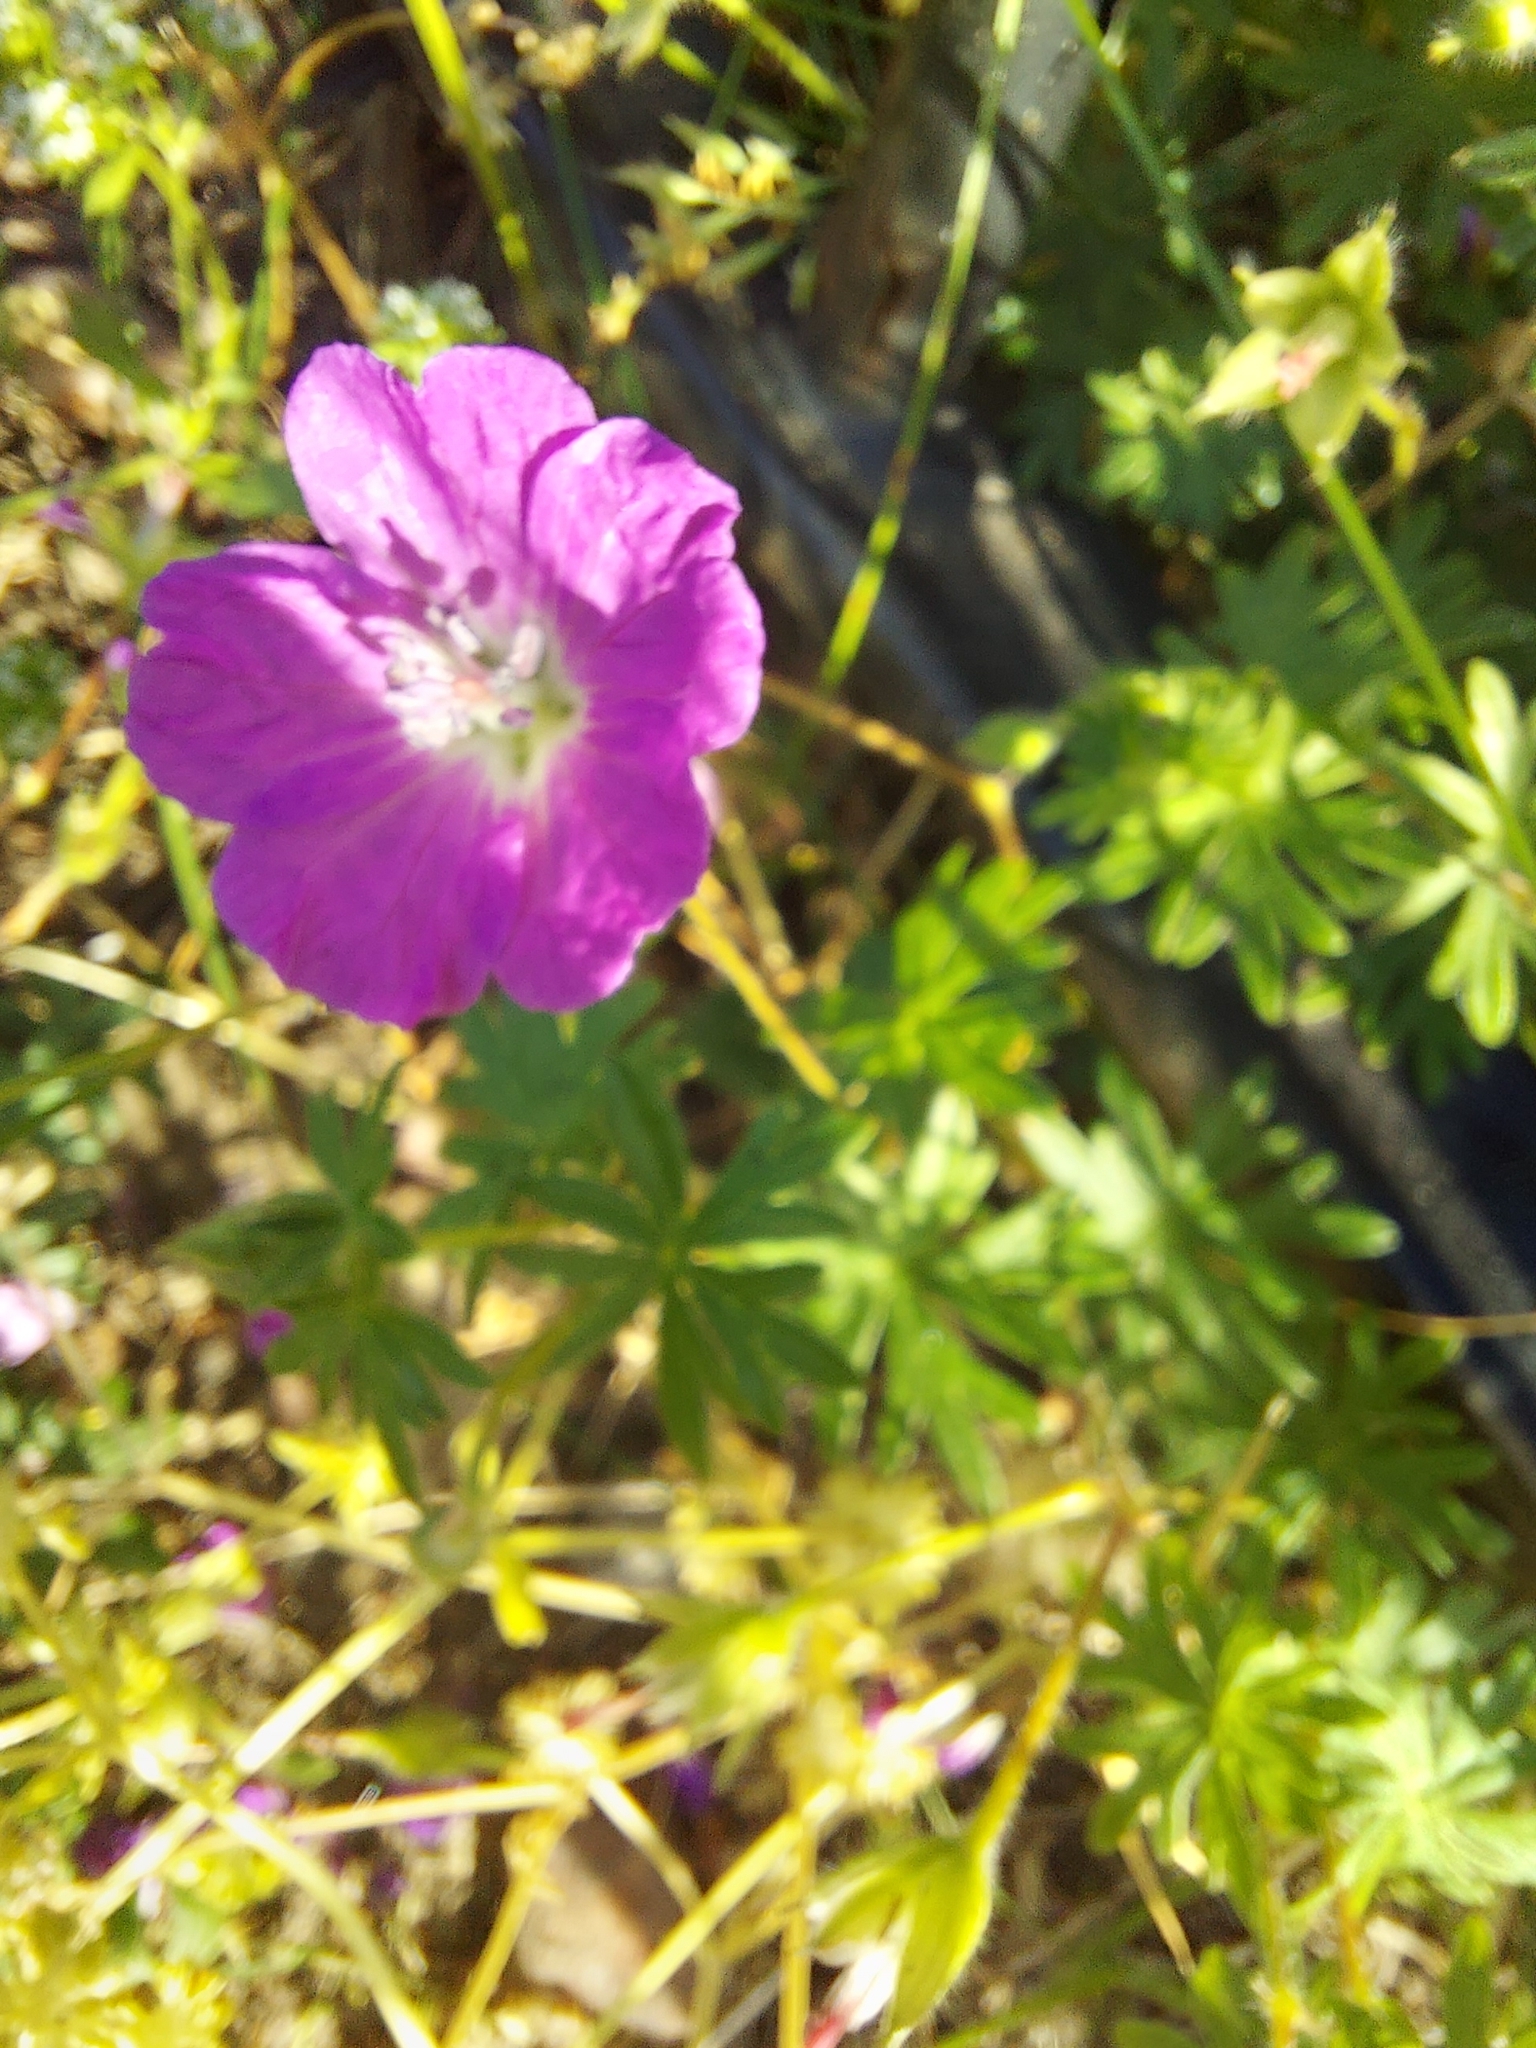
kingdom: Plantae
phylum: Tracheophyta
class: Magnoliopsida
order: Geraniales
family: Geraniaceae
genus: Geranium
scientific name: Geranium sanguineum
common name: Bloody crane's-bill
